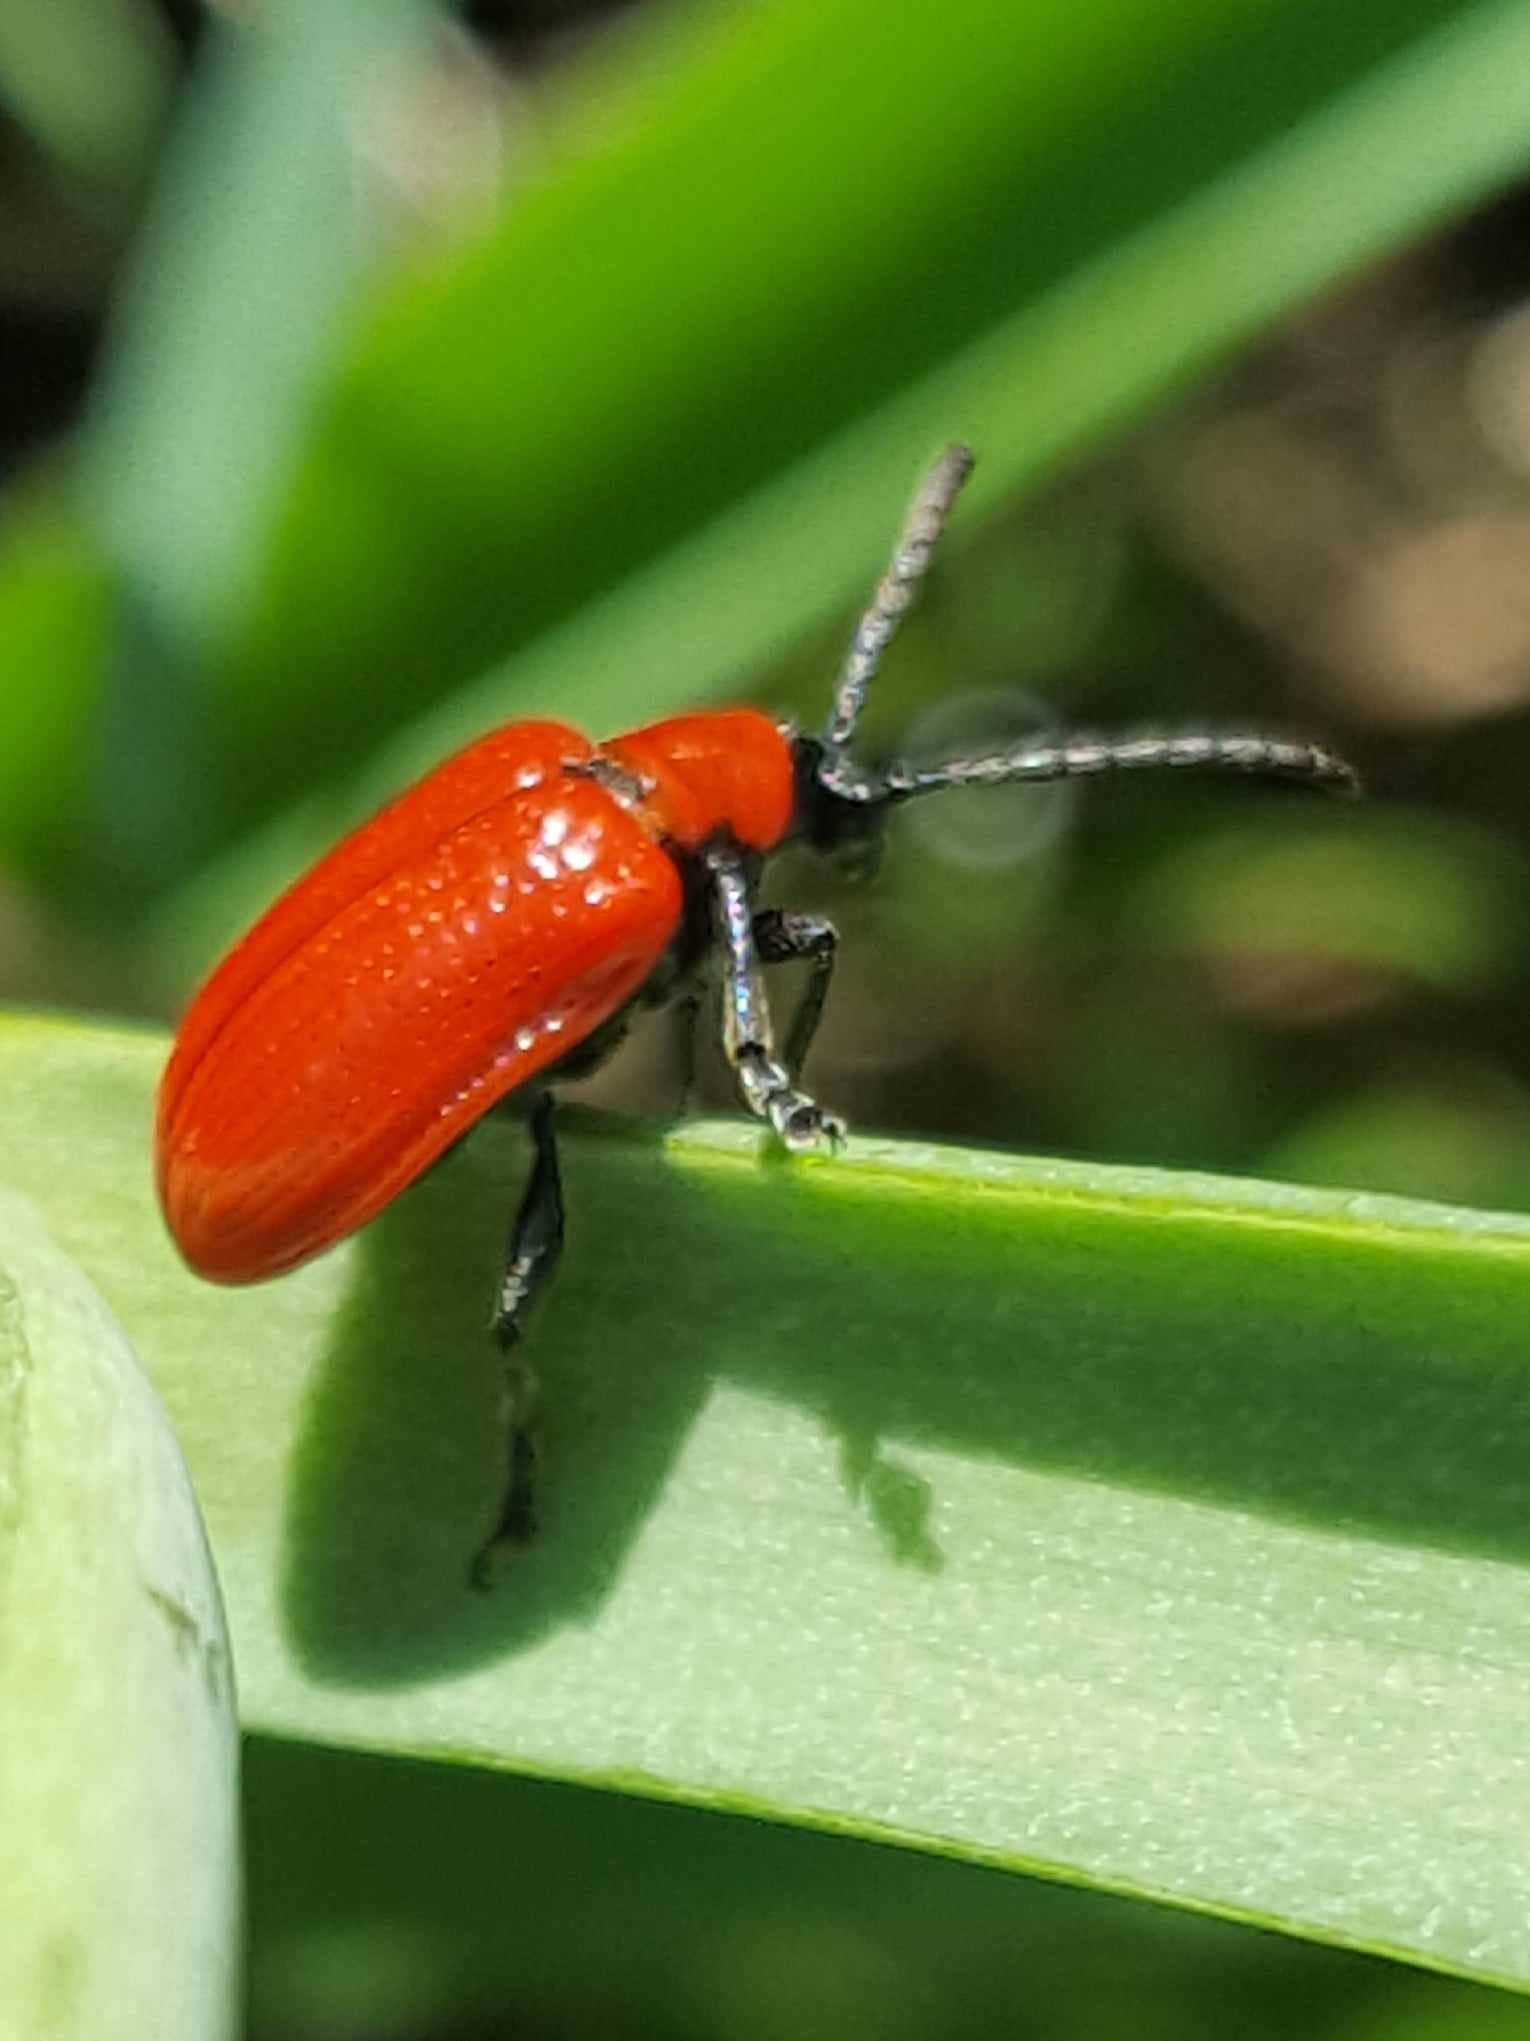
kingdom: Animalia
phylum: Arthropoda
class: Insecta
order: Coleoptera
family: Chrysomelidae
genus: Lilioceris
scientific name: Lilioceris lilii
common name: Lily beetle
